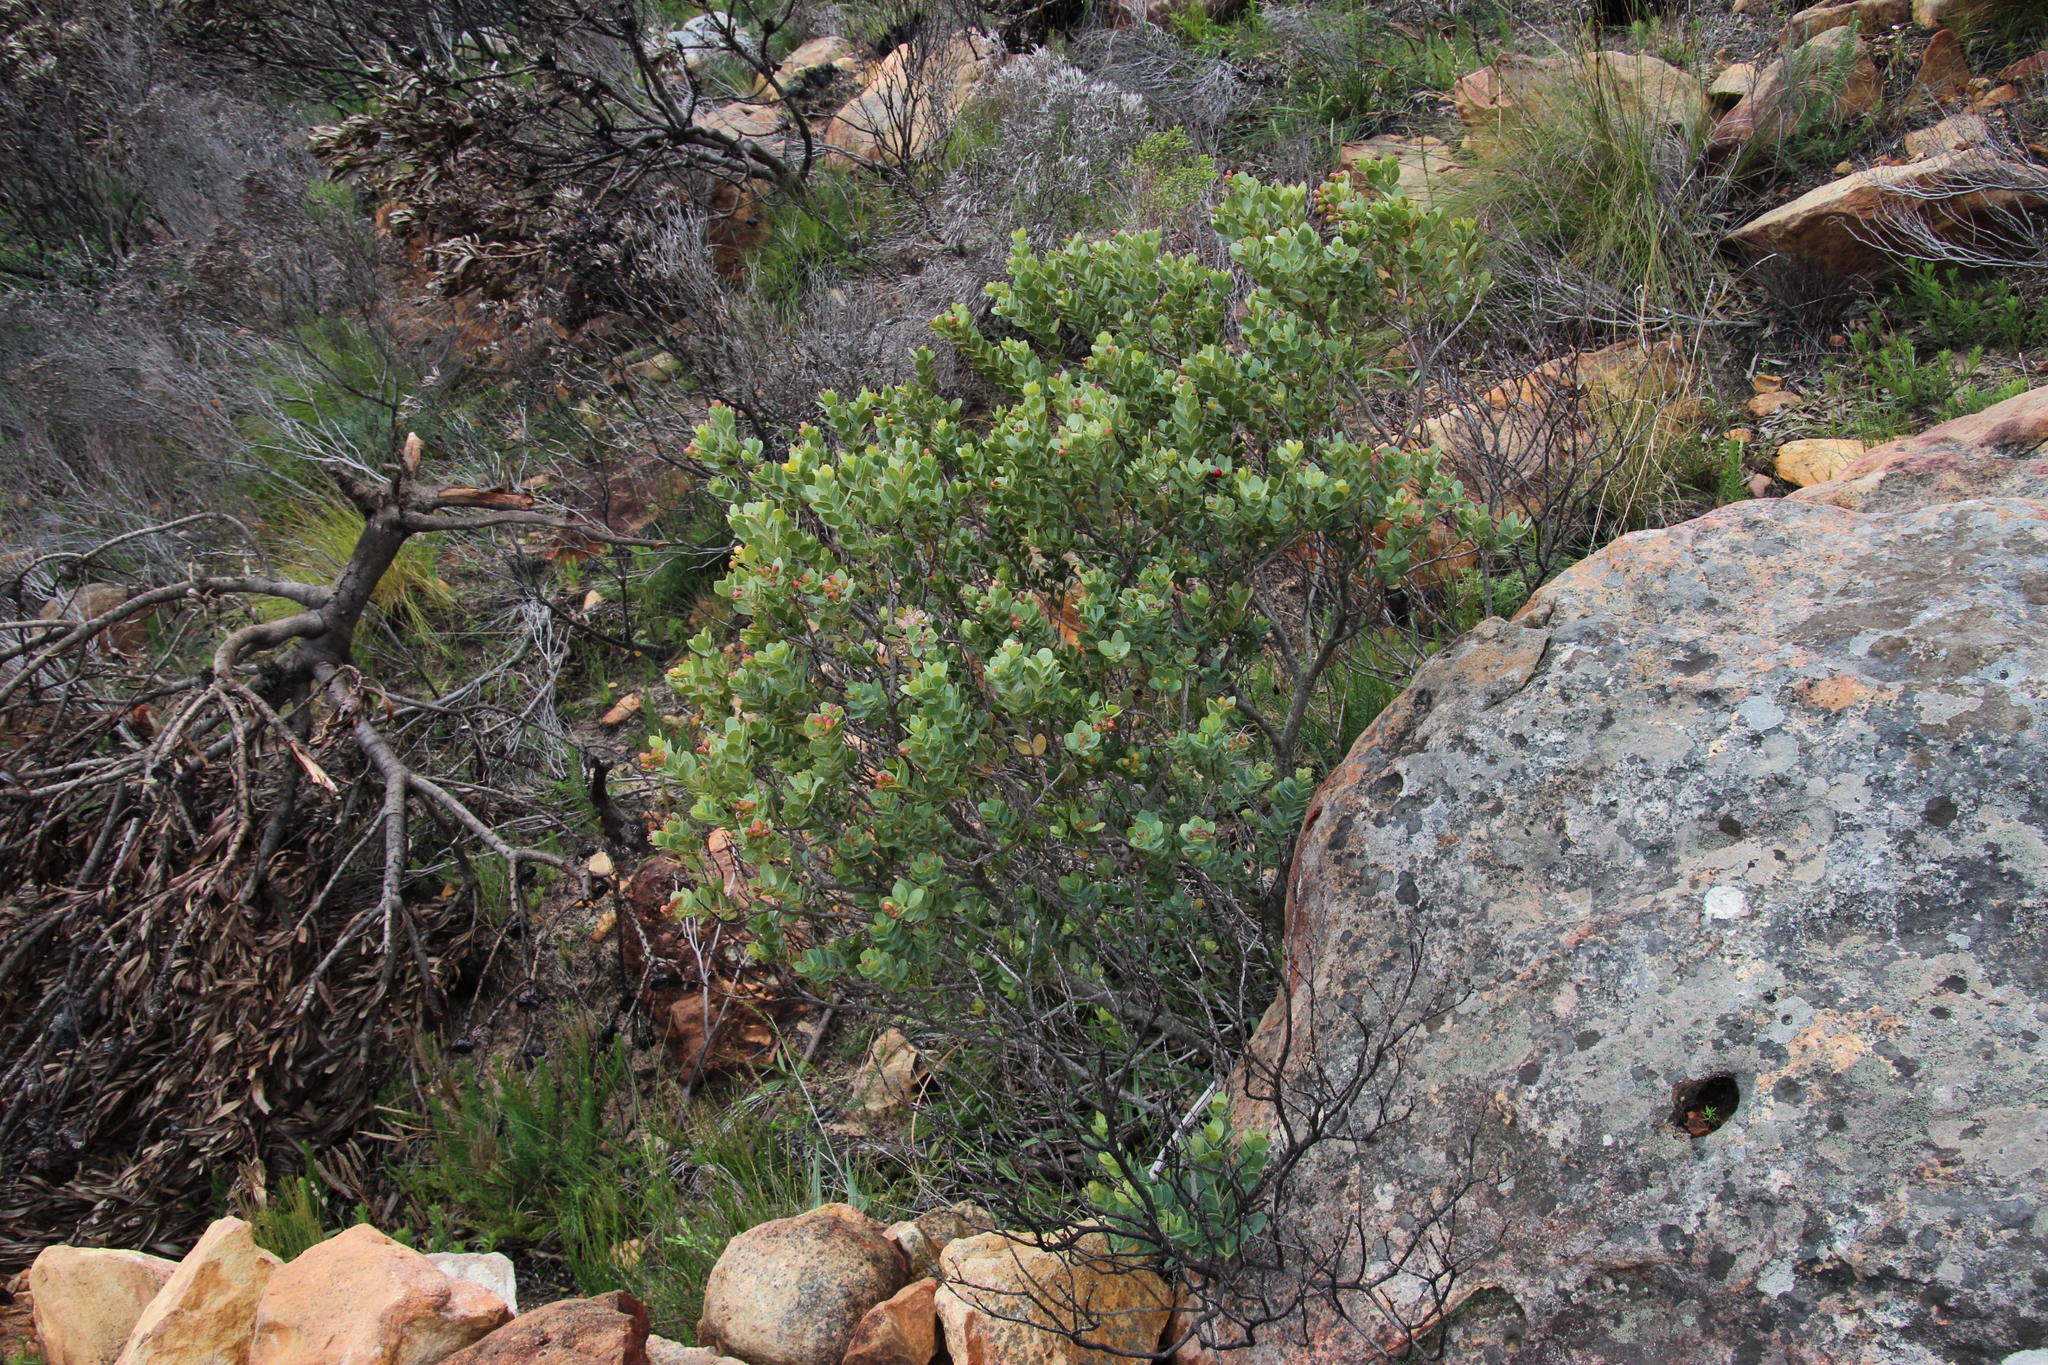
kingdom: Plantae
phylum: Tracheophyta
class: Magnoliopsida
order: Santalales
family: Santalaceae
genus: Osyris
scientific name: Osyris compressa
